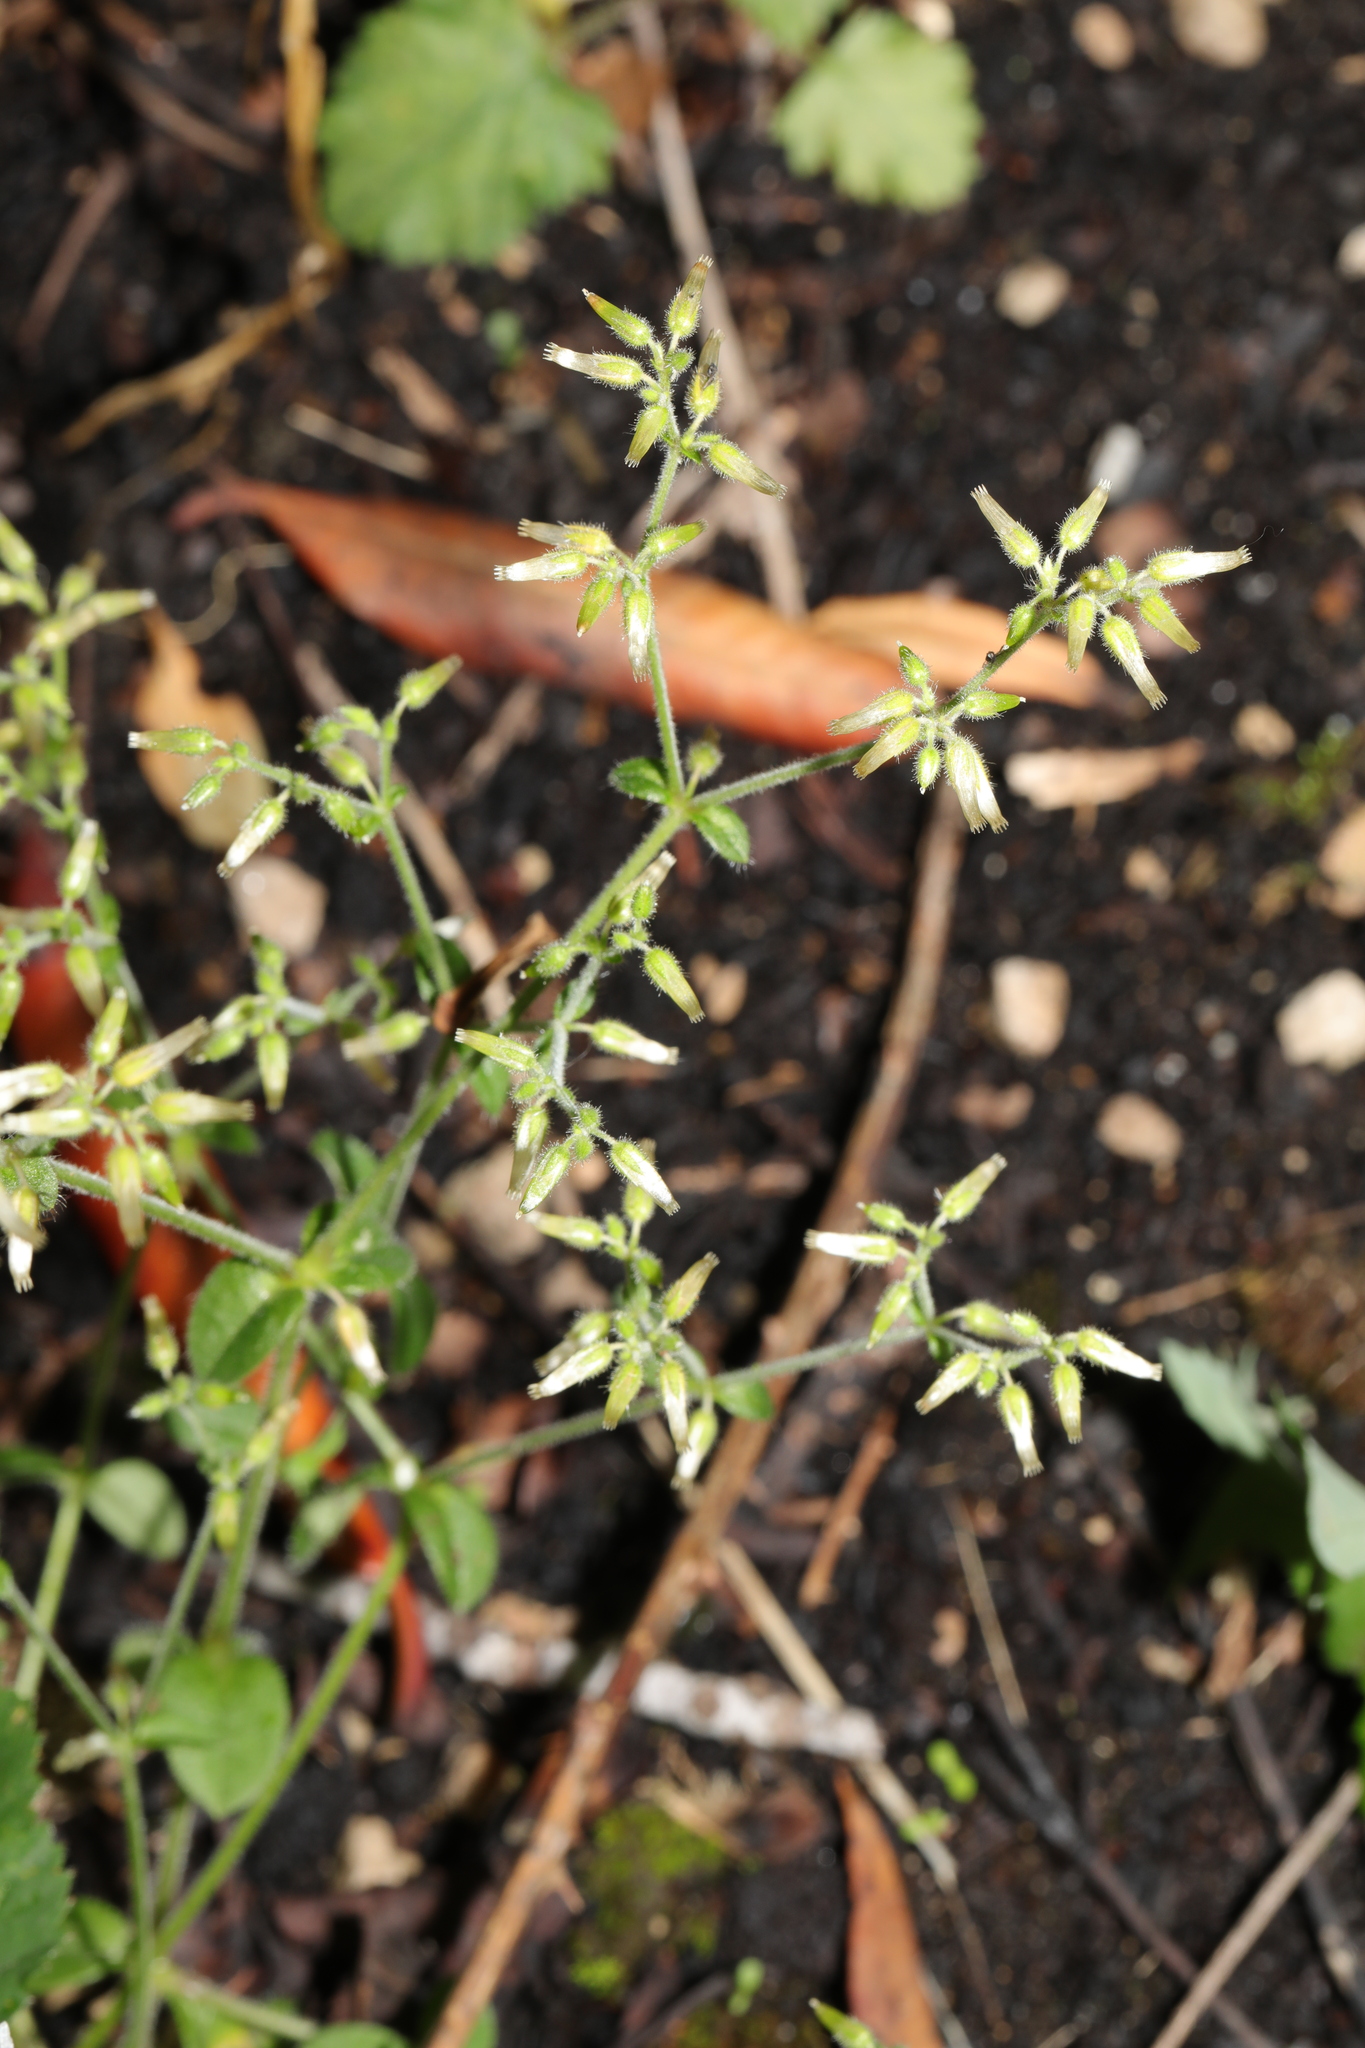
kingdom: Plantae
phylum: Tracheophyta
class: Magnoliopsida
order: Caryophyllales
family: Caryophyllaceae
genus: Cerastium
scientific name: Cerastium glomeratum
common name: Sticky chickweed
